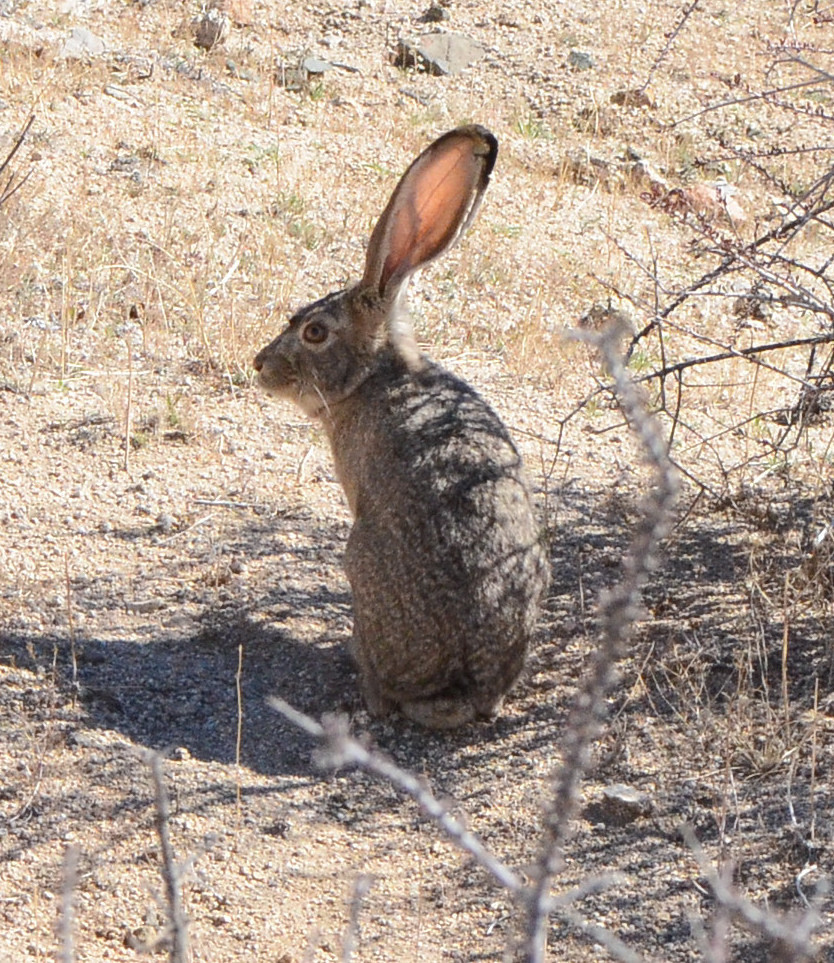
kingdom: Animalia
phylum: Chordata
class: Mammalia
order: Lagomorpha
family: Leporidae
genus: Lepus
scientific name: Lepus californicus
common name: Black-tailed jackrabbit
